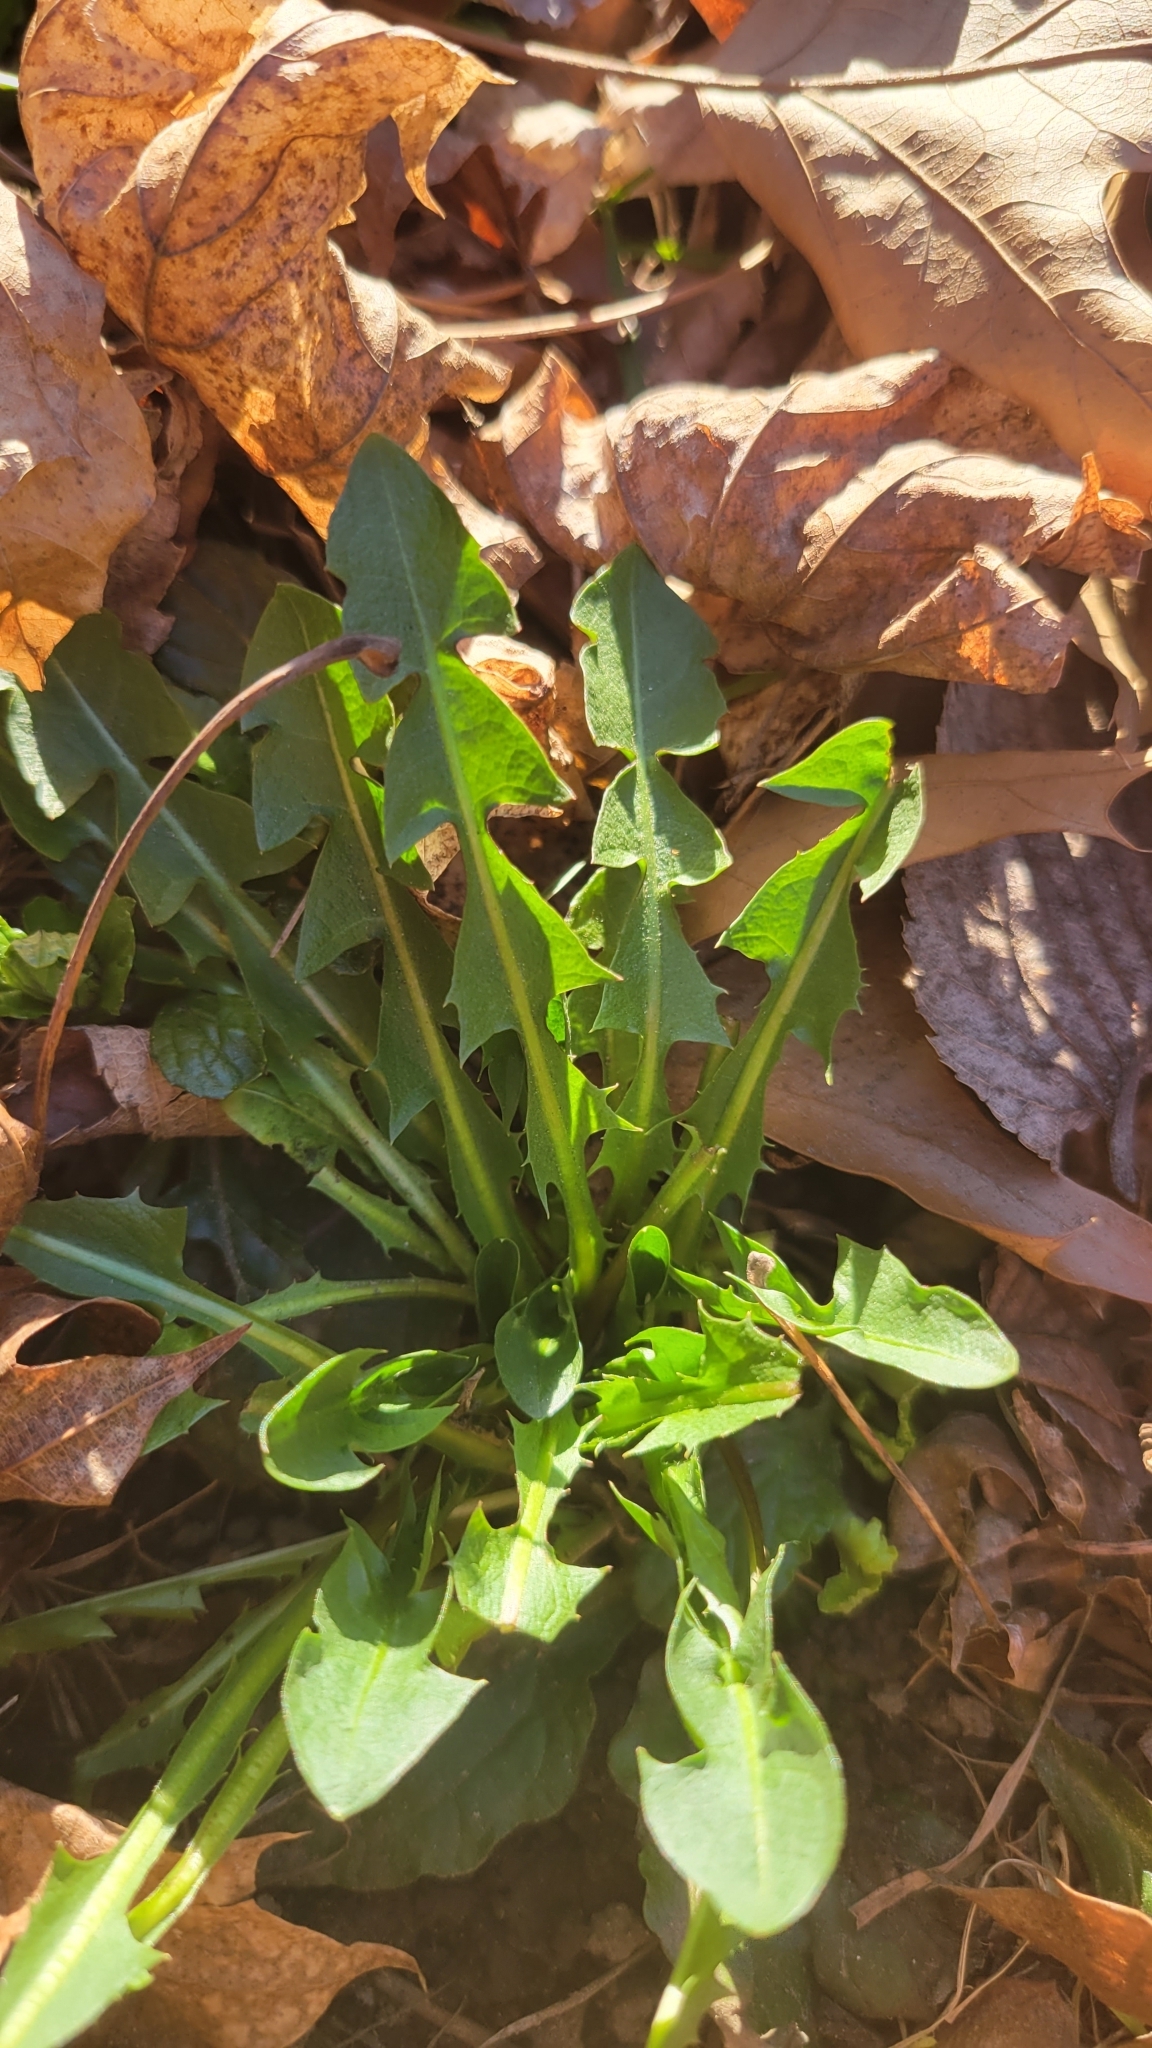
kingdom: Plantae
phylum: Tracheophyta
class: Magnoliopsida
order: Asterales
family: Asteraceae
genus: Taraxacum
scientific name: Taraxacum officinale
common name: Common dandelion
